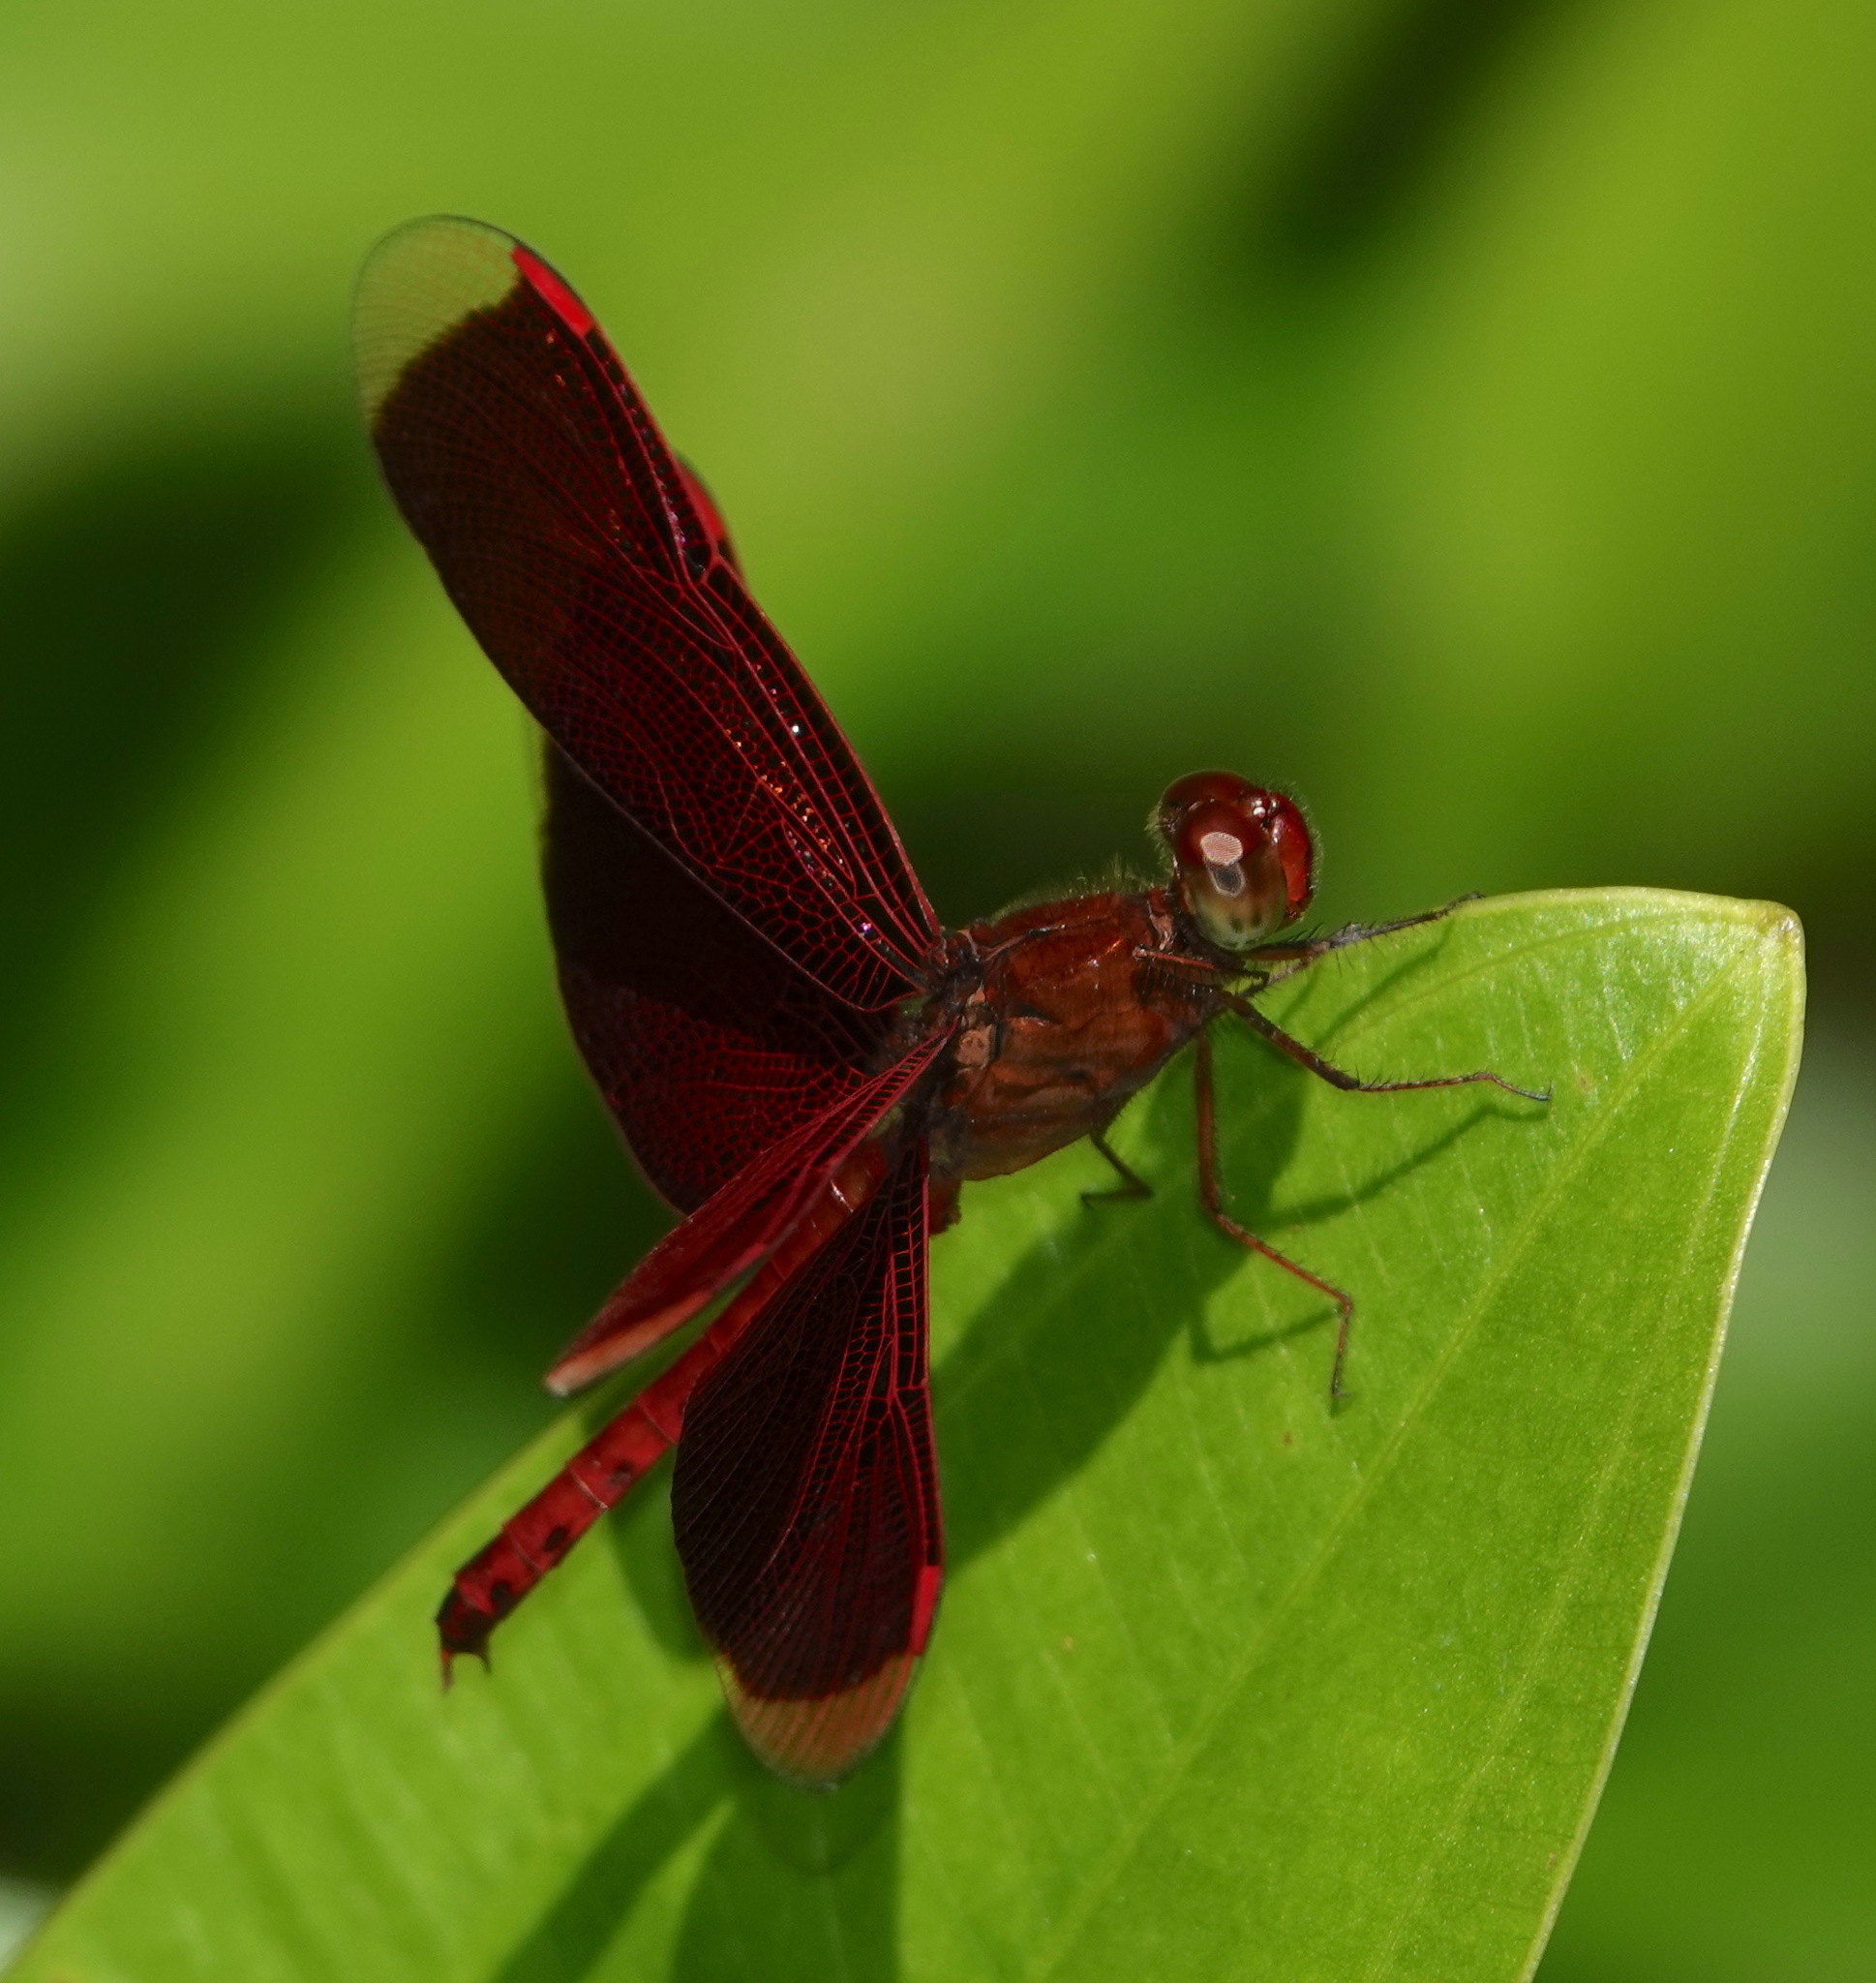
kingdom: Animalia
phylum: Arthropoda
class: Insecta
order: Odonata
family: Libellulidae
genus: Neurothemis
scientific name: Neurothemis fluctuans
